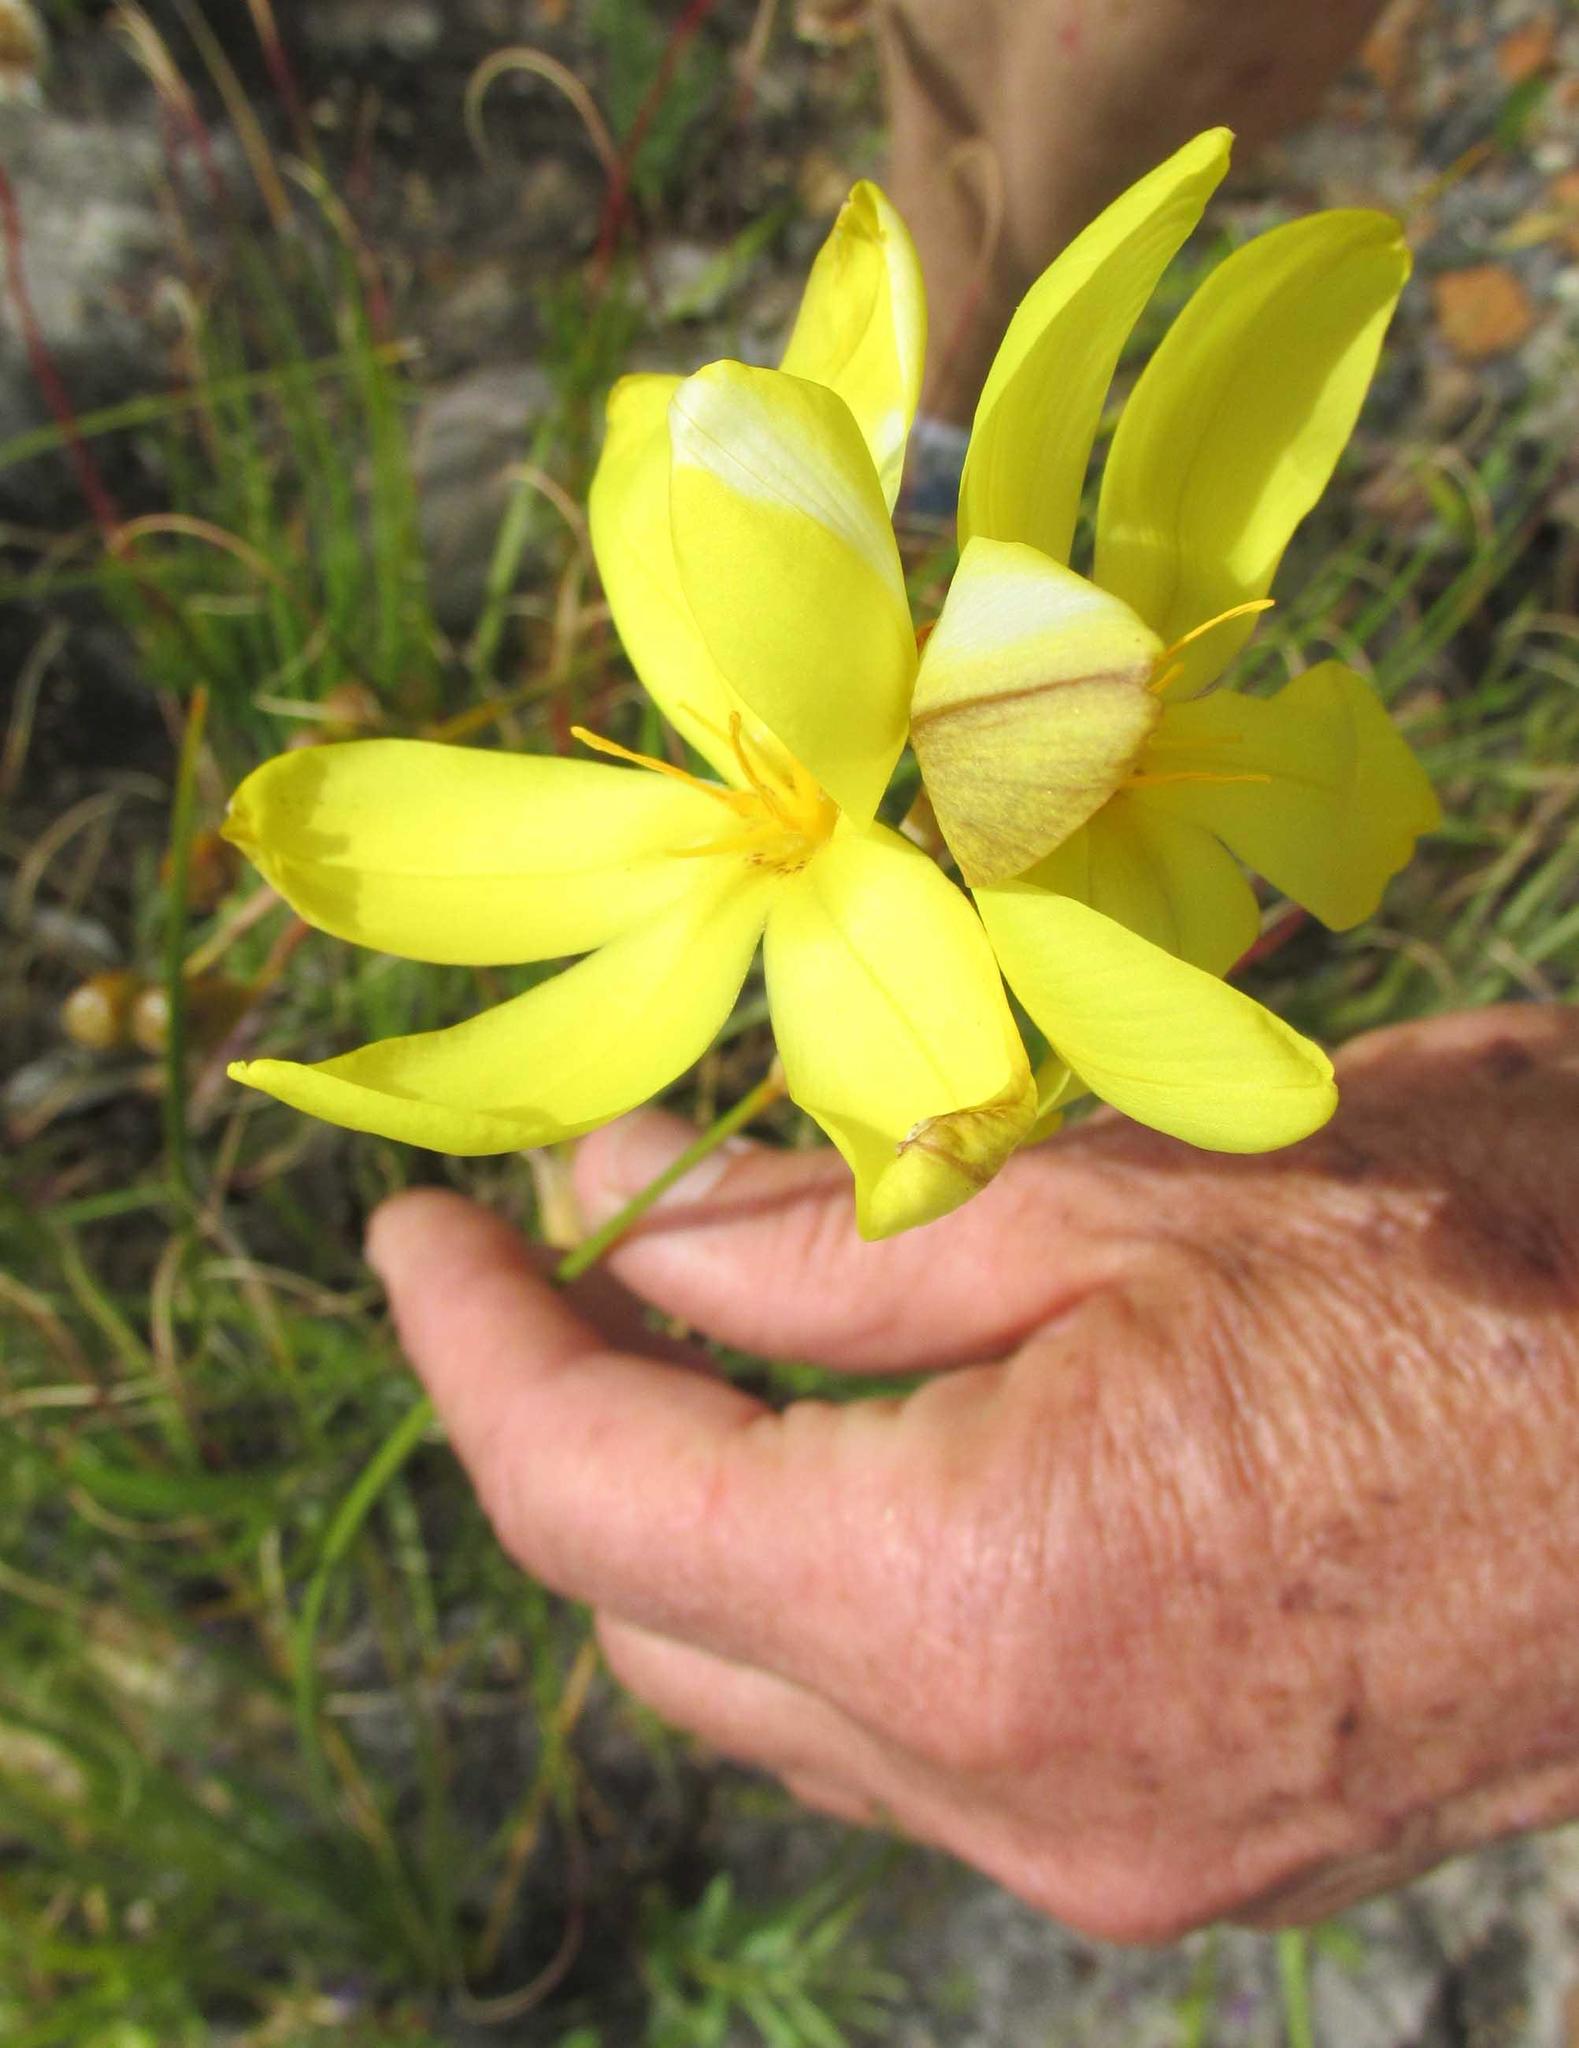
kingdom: Plantae
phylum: Tracheophyta
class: Liliopsida
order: Asparagales
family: Iridaceae
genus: Bobartia
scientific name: Bobartia gladiata
